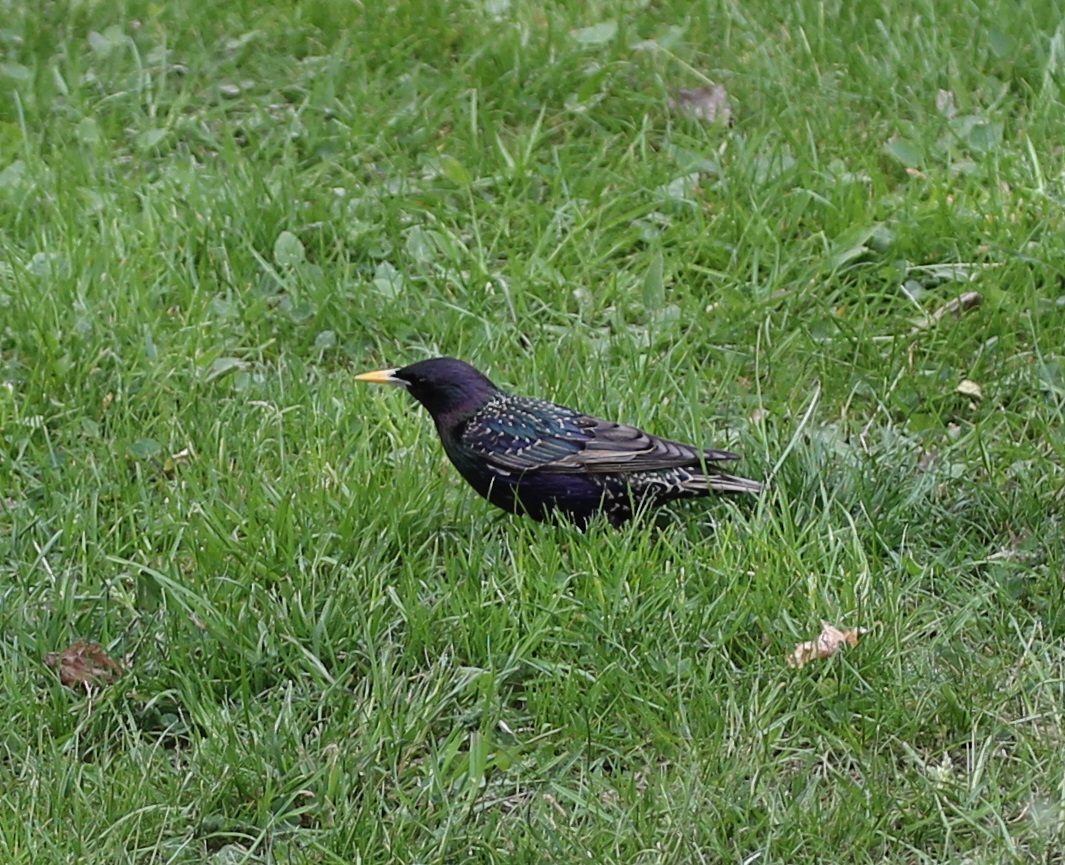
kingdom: Animalia
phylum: Chordata
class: Aves
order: Passeriformes
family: Sturnidae
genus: Sturnus
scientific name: Sturnus vulgaris
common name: Common starling
